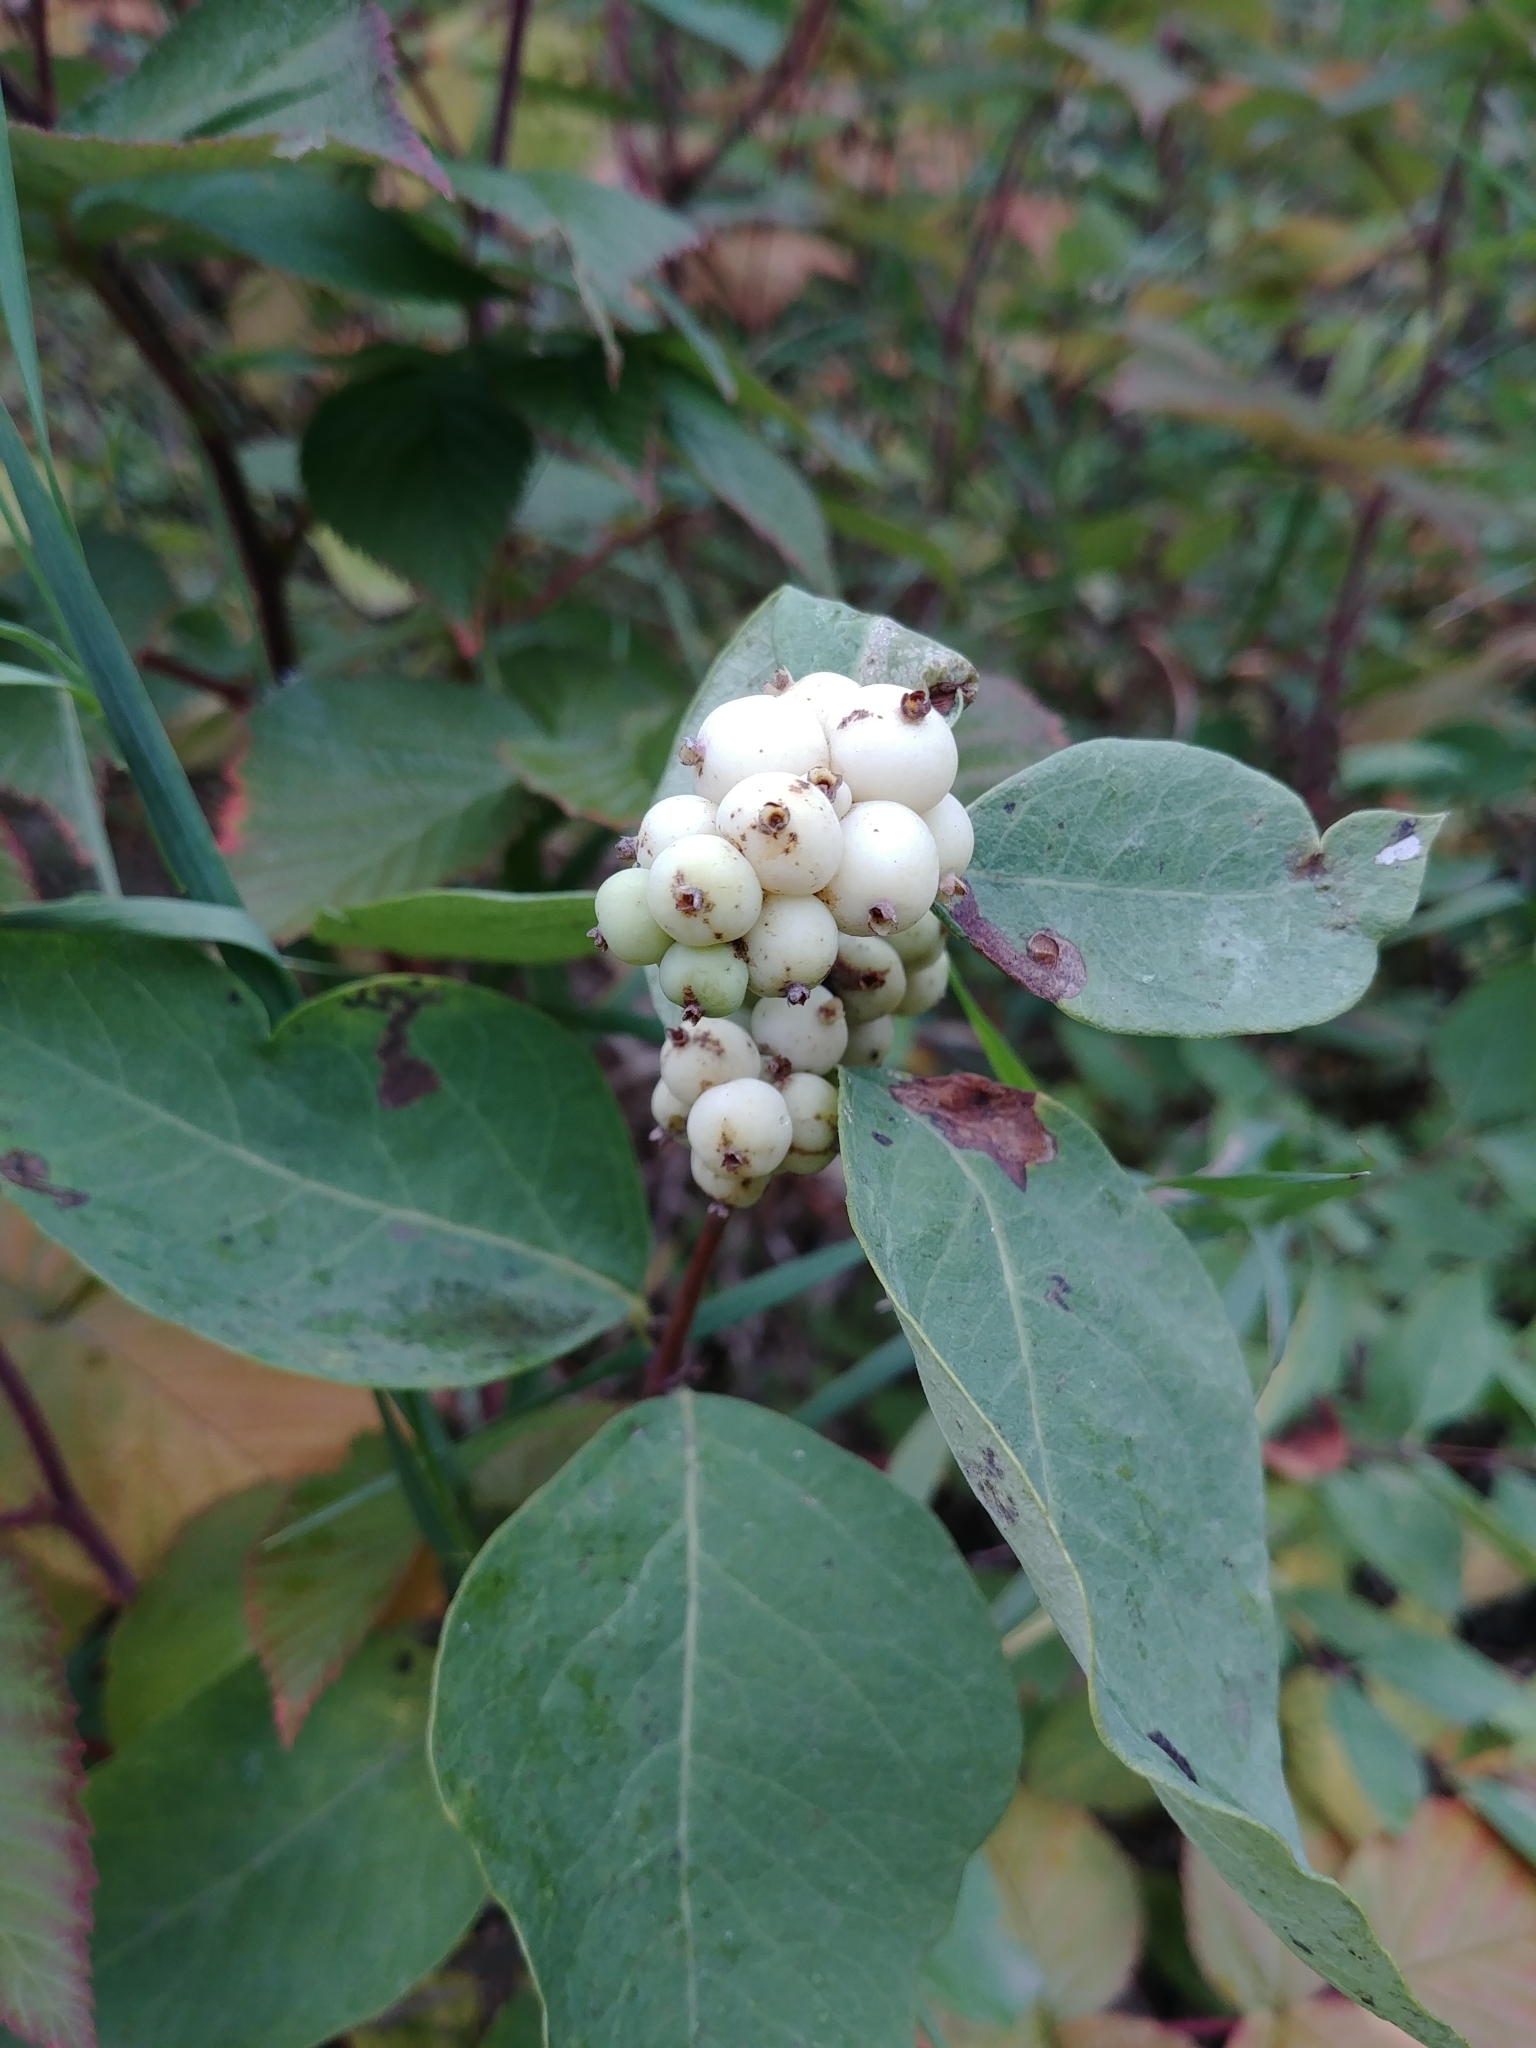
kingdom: Plantae
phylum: Tracheophyta
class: Magnoliopsida
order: Dipsacales
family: Caprifoliaceae
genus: Symphoricarpos
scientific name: Symphoricarpos occidentalis
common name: Wolfberry
